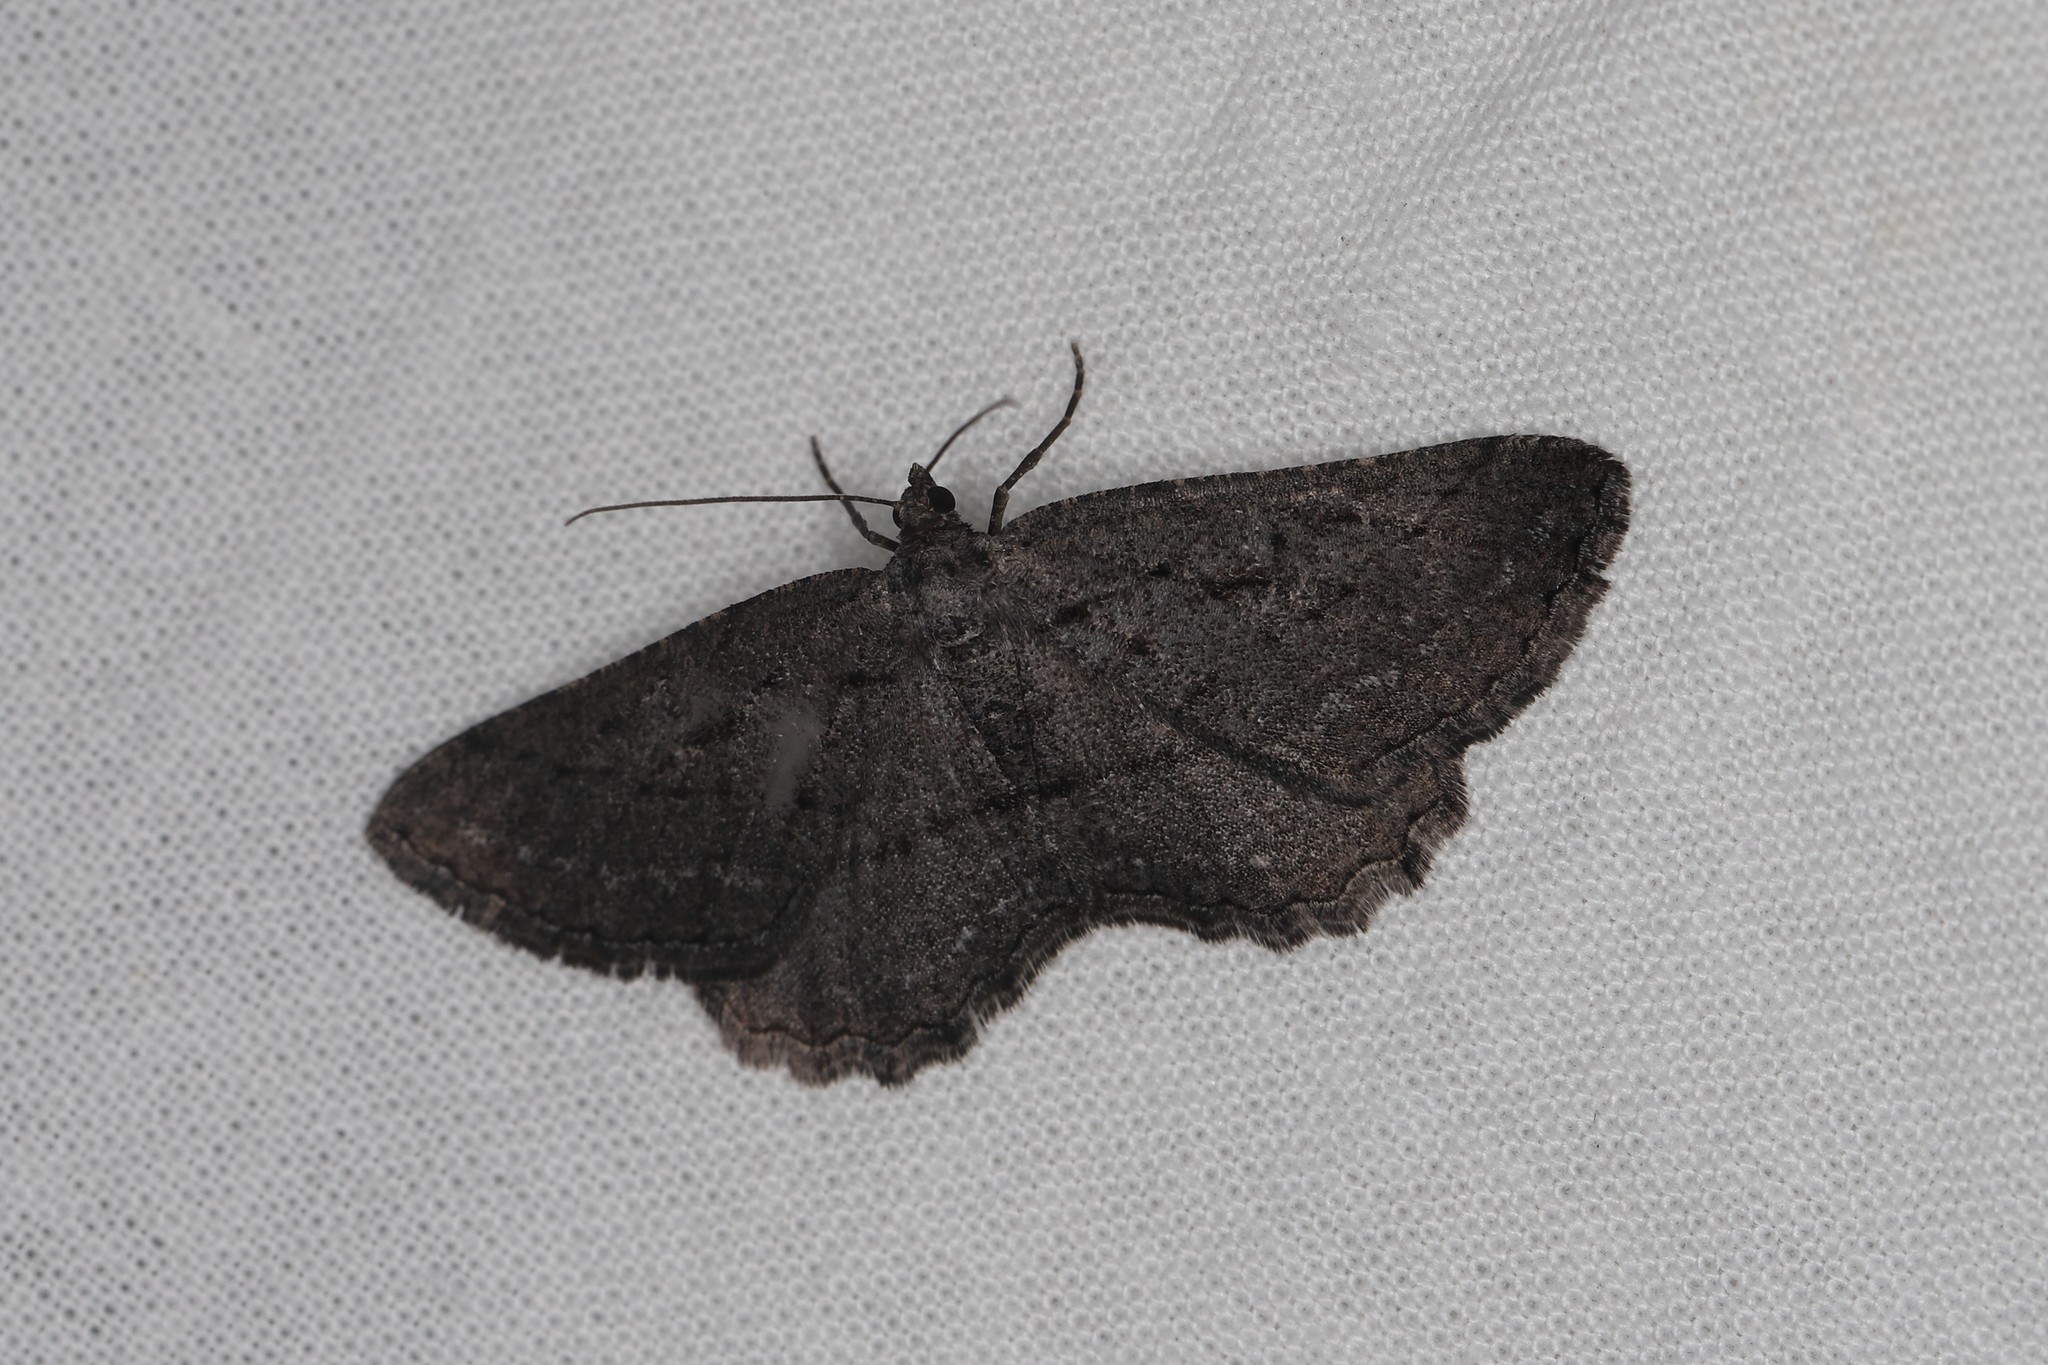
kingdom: Animalia
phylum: Arthropoda
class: Insecta
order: Lepidoptera
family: Geometridae
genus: Rhoptria
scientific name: Rhoptria asperaria
